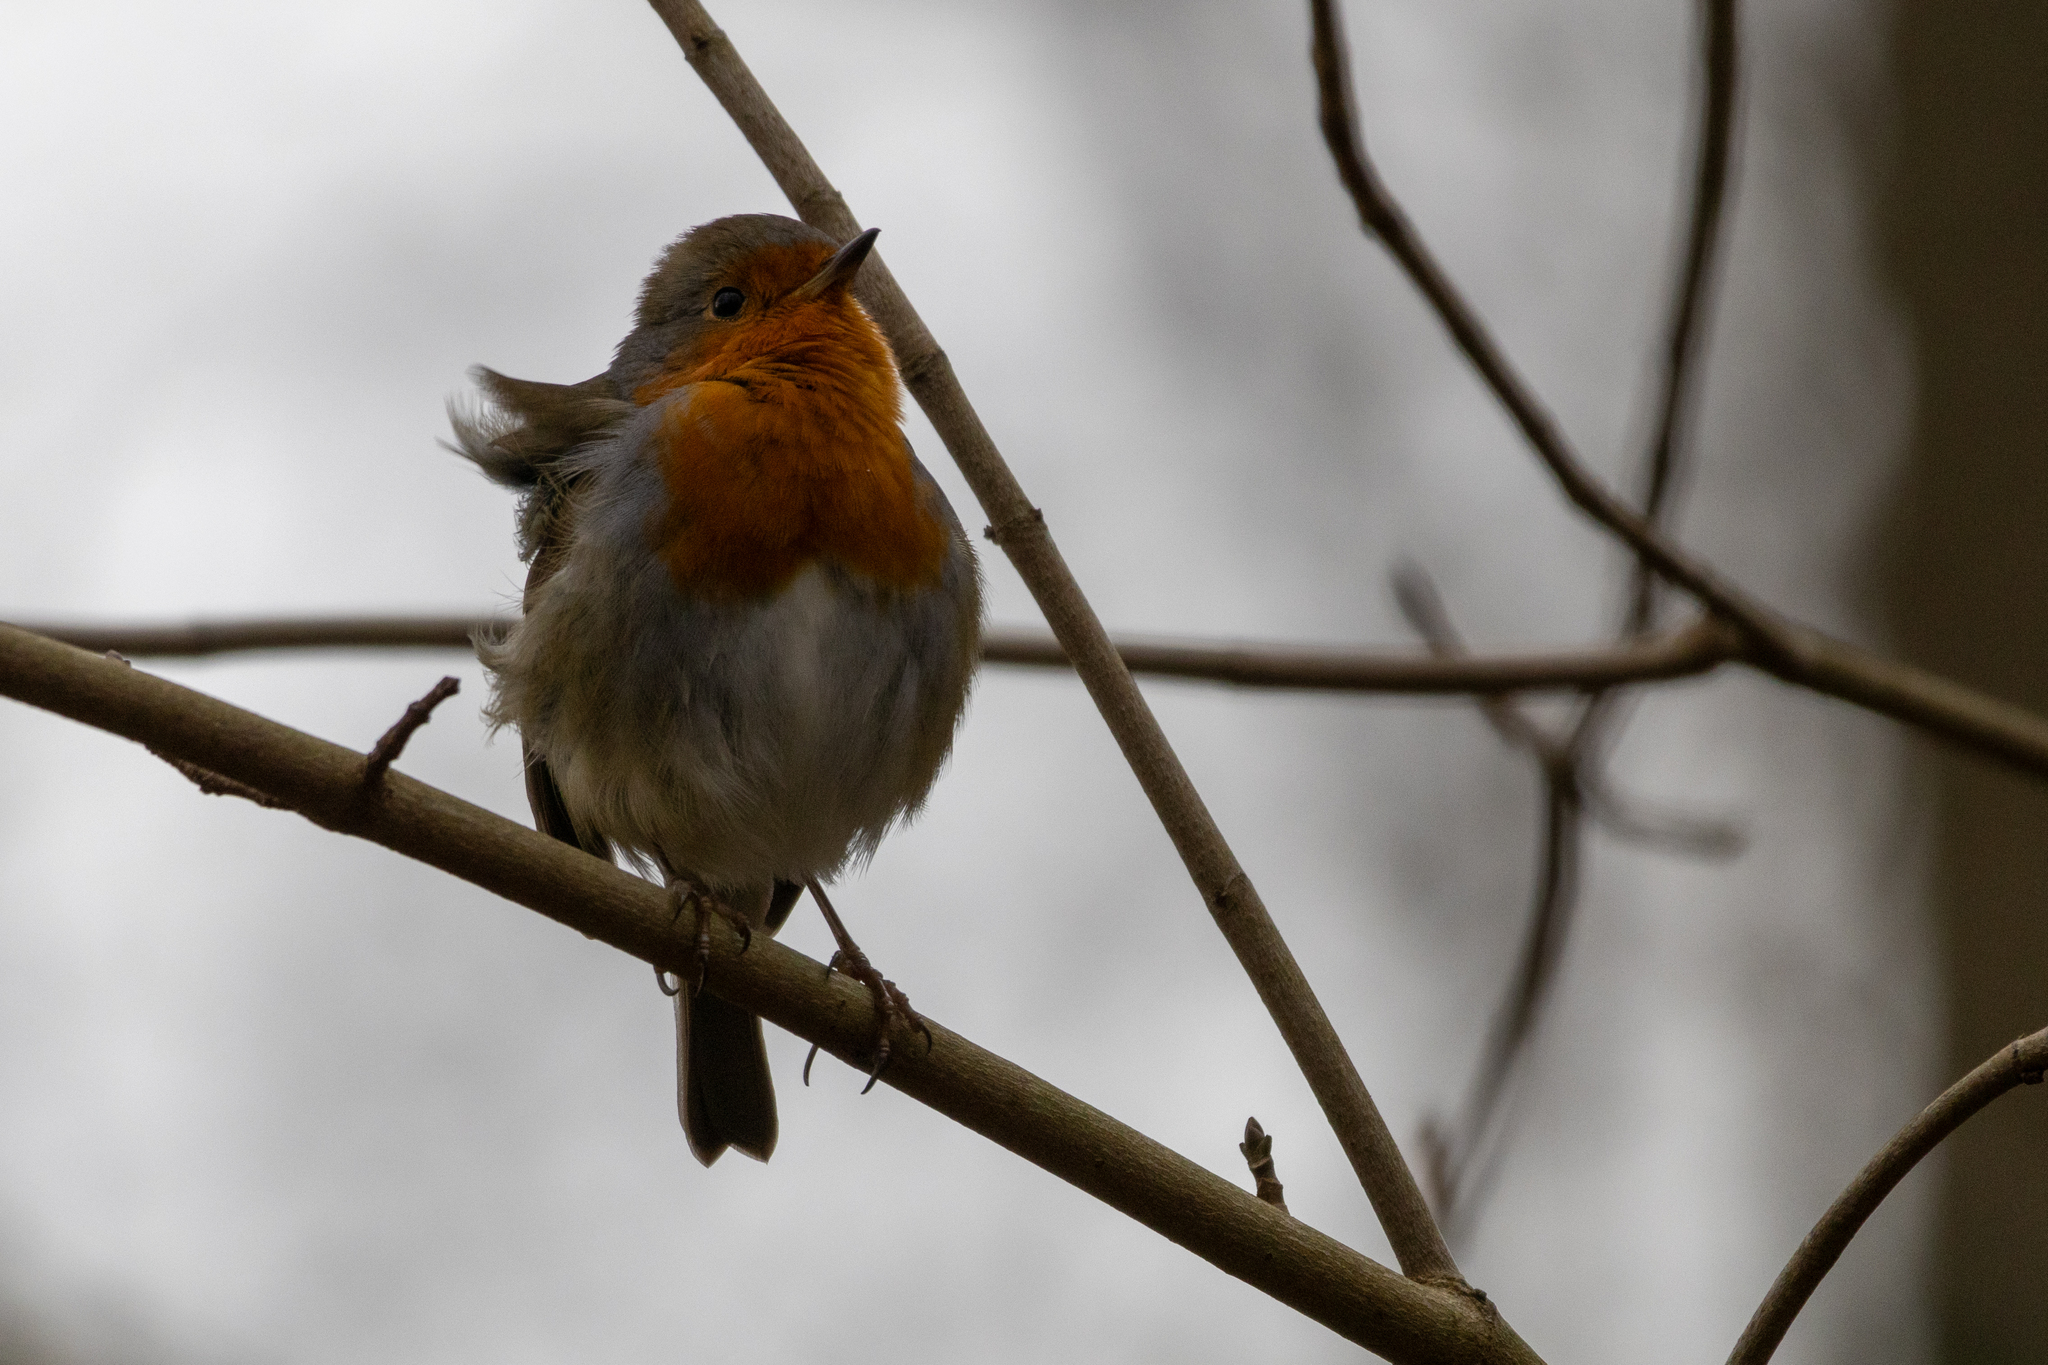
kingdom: Animalia
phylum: Chordata
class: Aves
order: Passeriformes
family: Muscicapidae
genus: Erithacus
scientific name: Erithacus rubecula
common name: European robin
